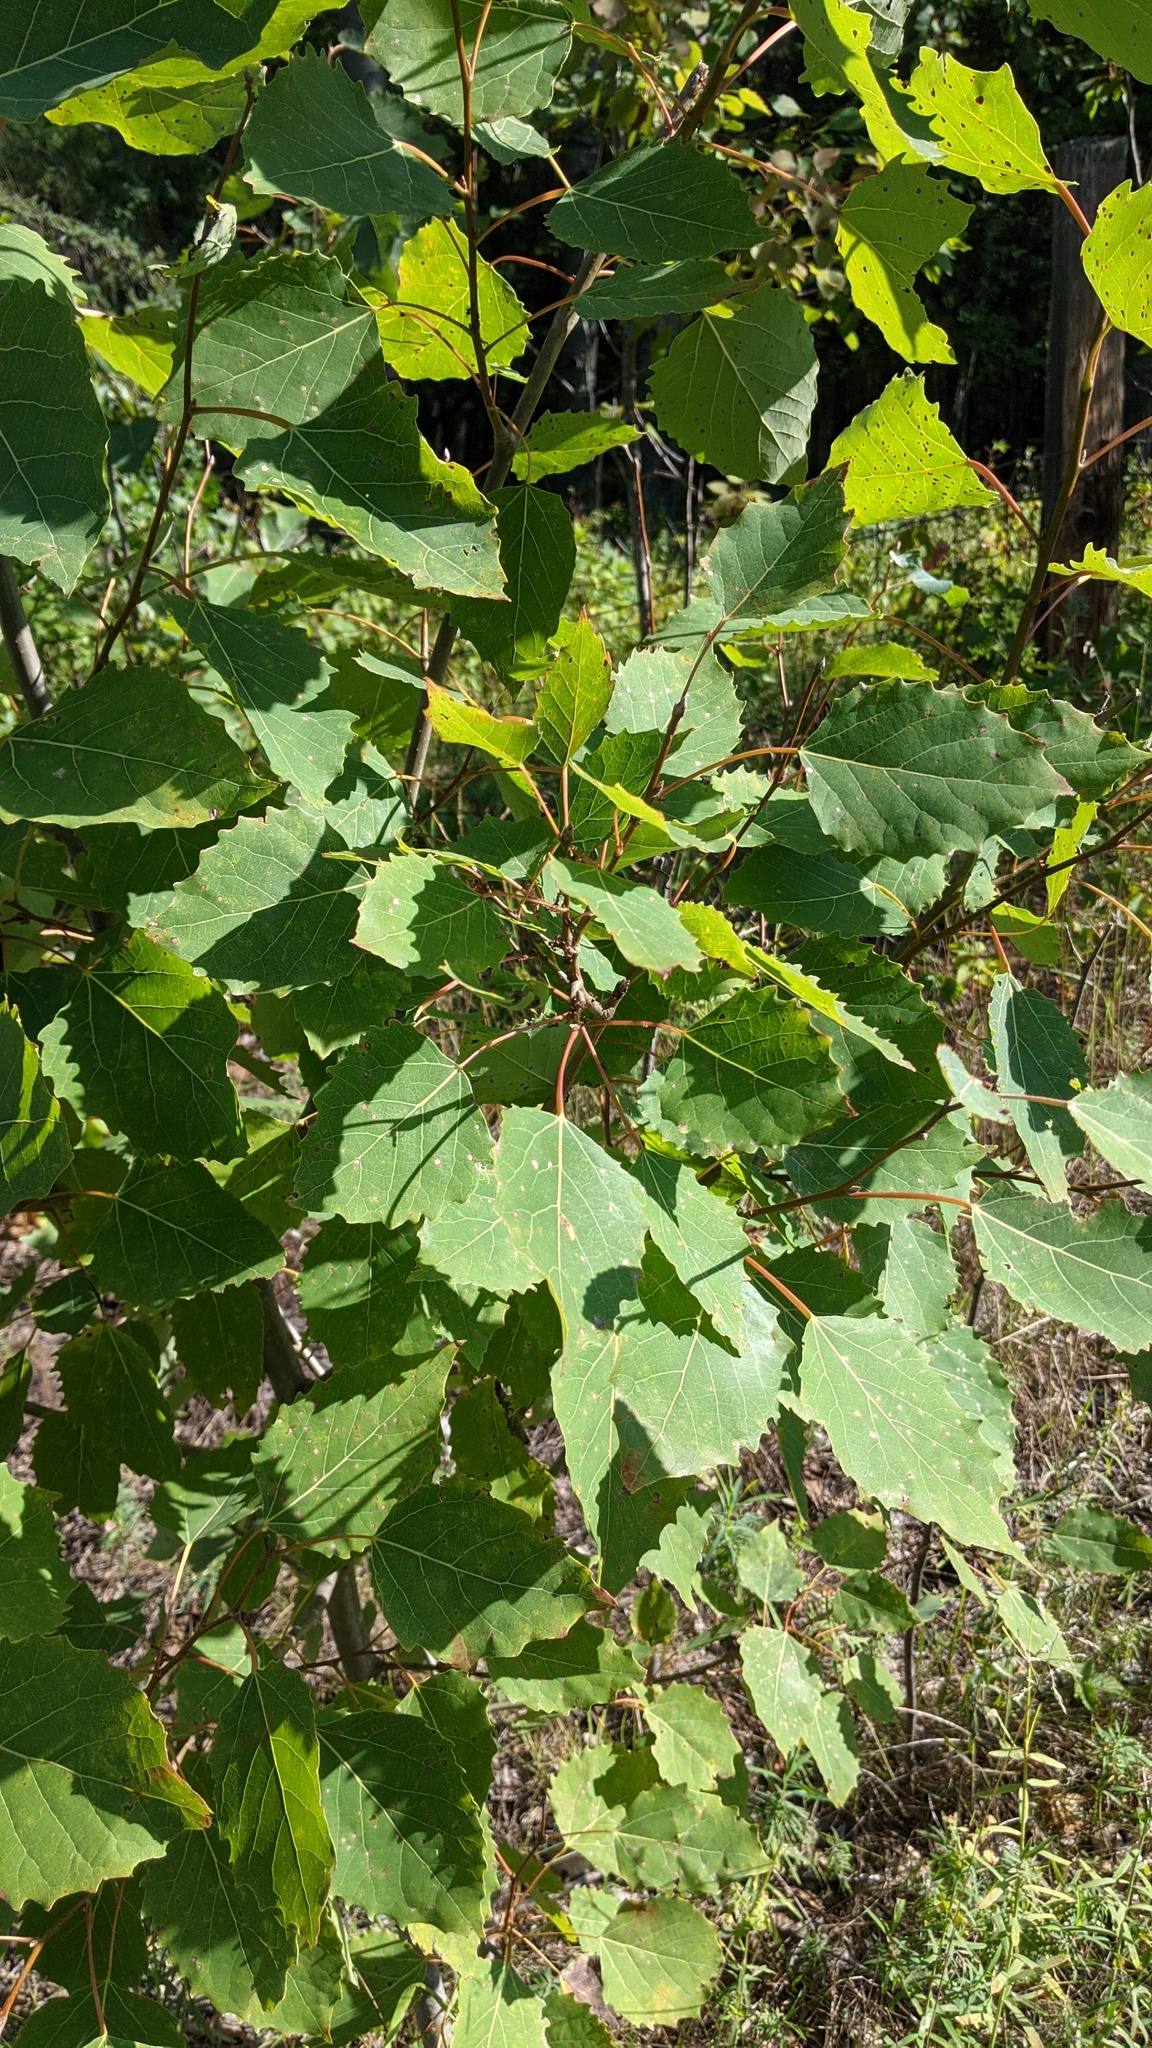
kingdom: Plantae
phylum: Tracheophyta
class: Magnoliopsida
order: Malpighiales
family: Salicaceae
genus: Populus
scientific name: Populus grandidentata
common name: Bigtooth aspen
